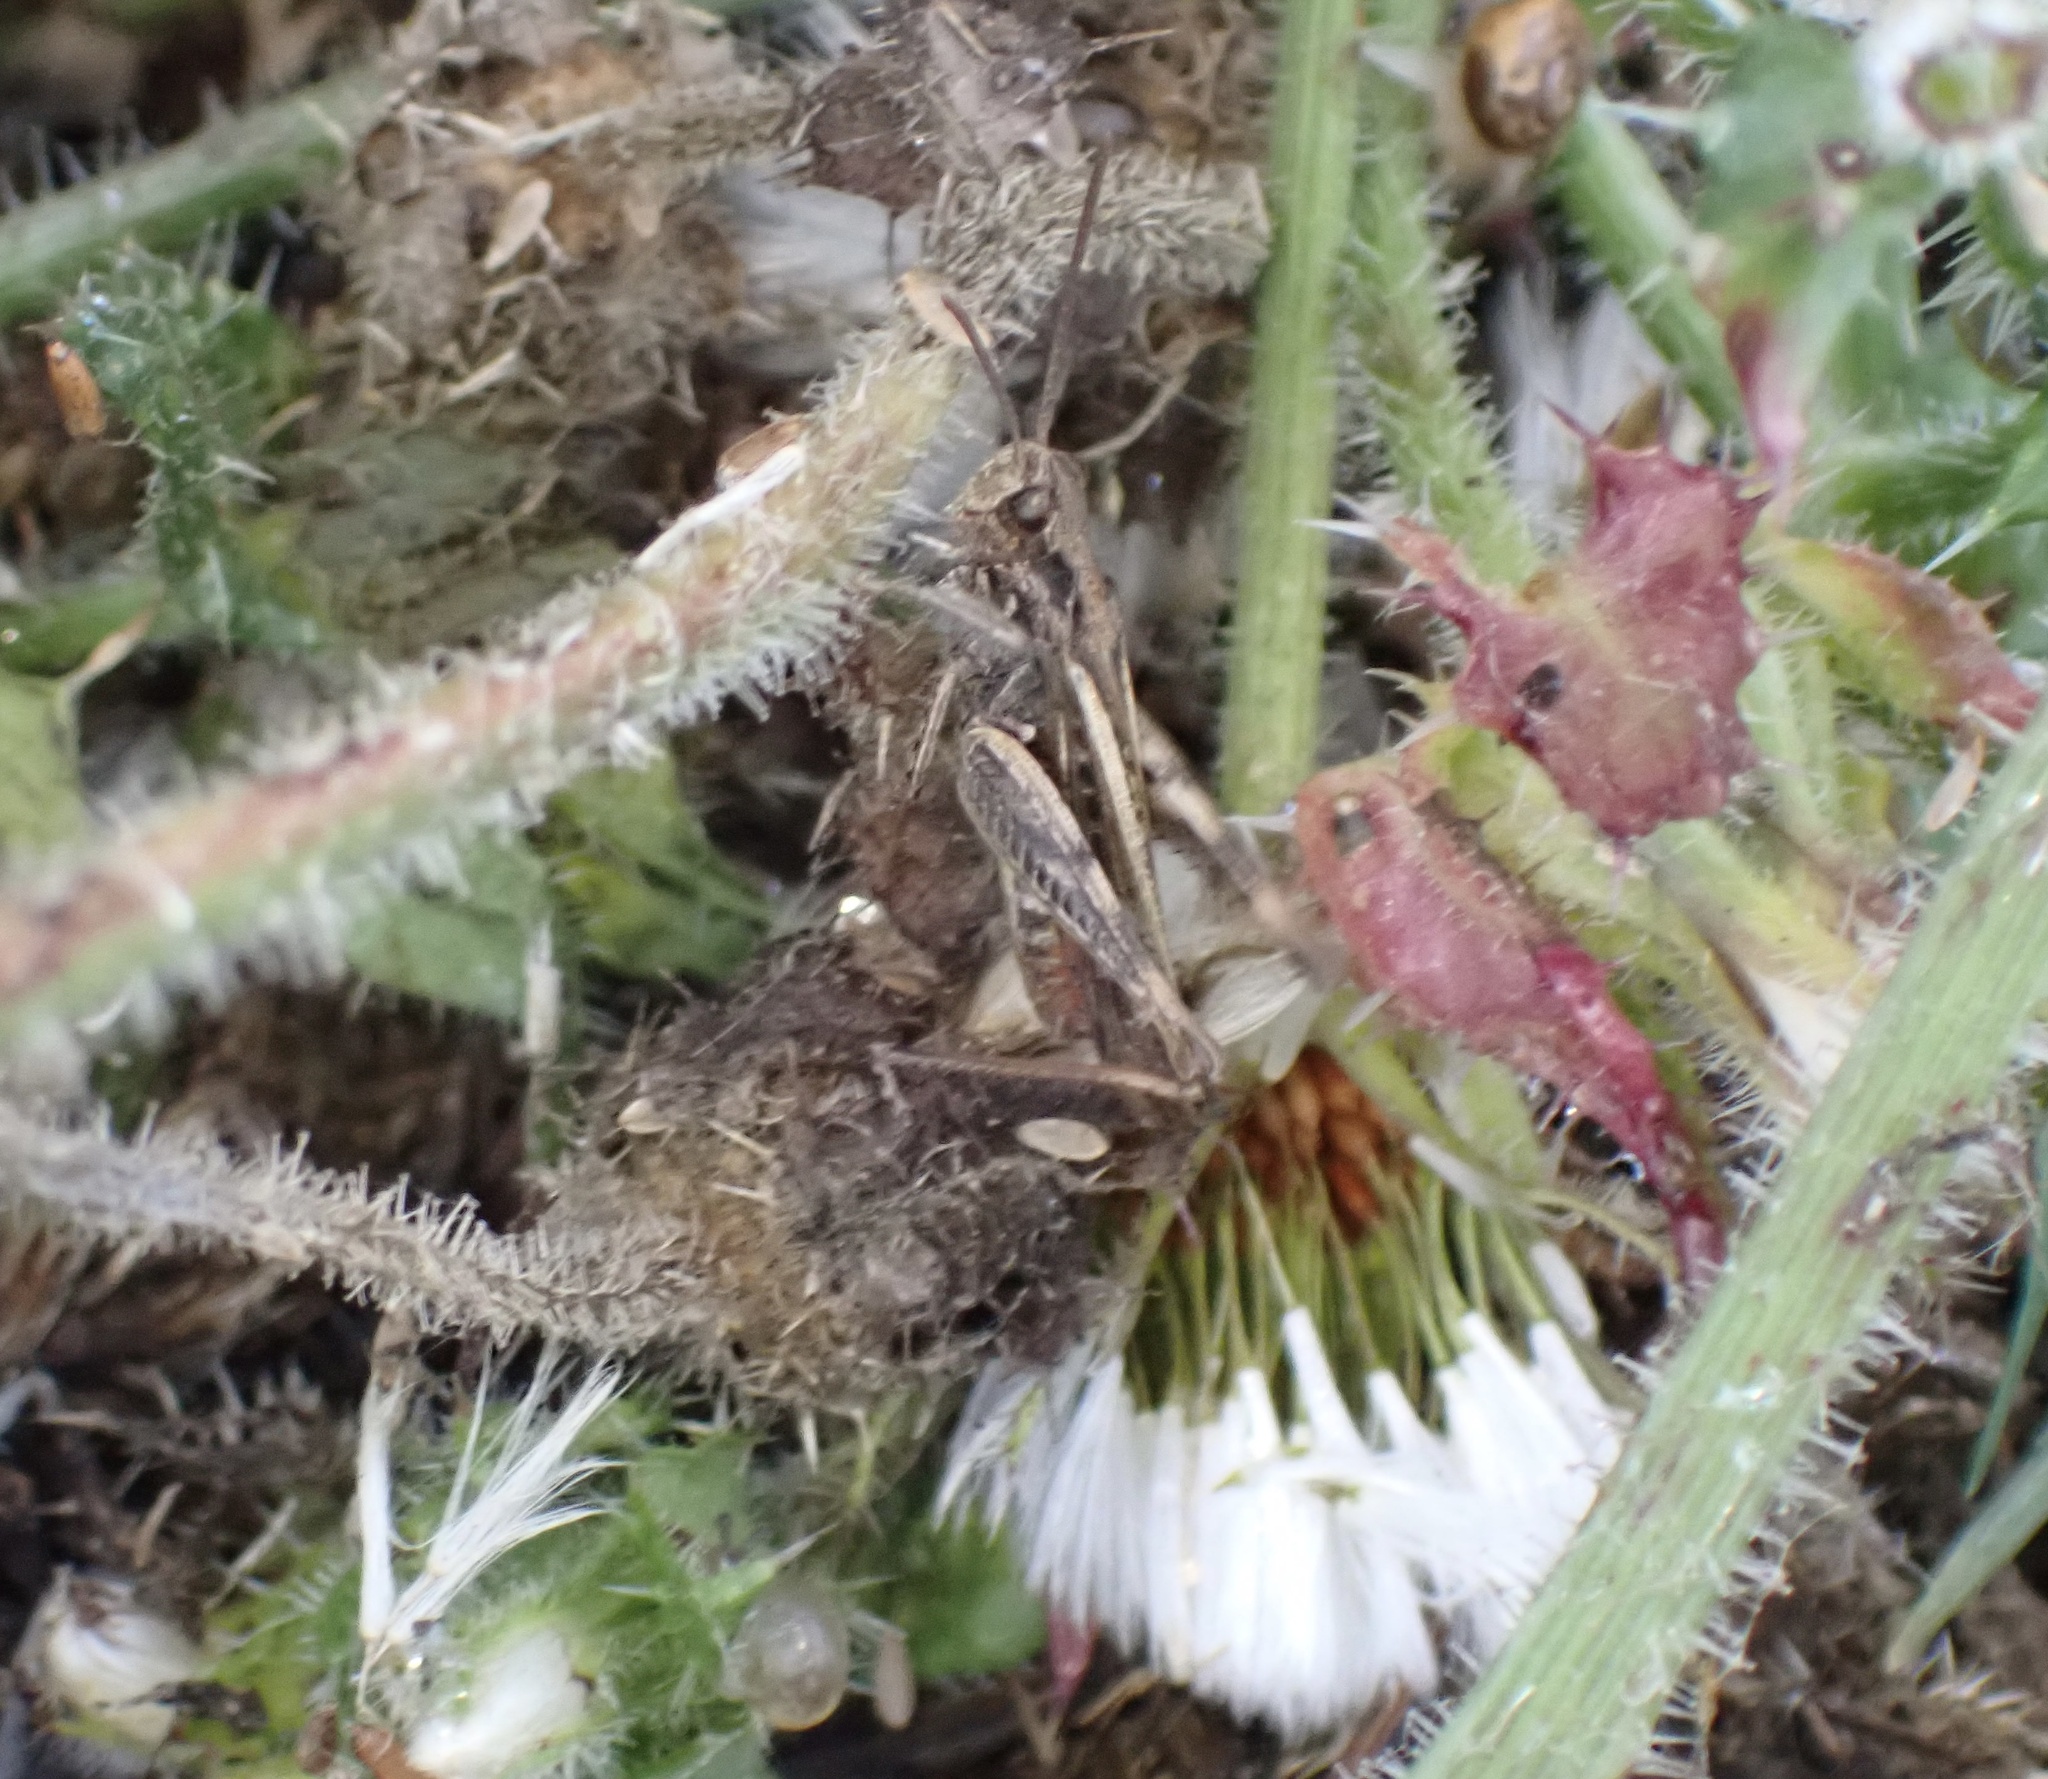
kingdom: Animalia
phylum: Arthropoda
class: Insecta
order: Orthoptera
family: Acrididae
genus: Chorthippus
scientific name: Chorthippus brunneus
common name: Field grasshopper
